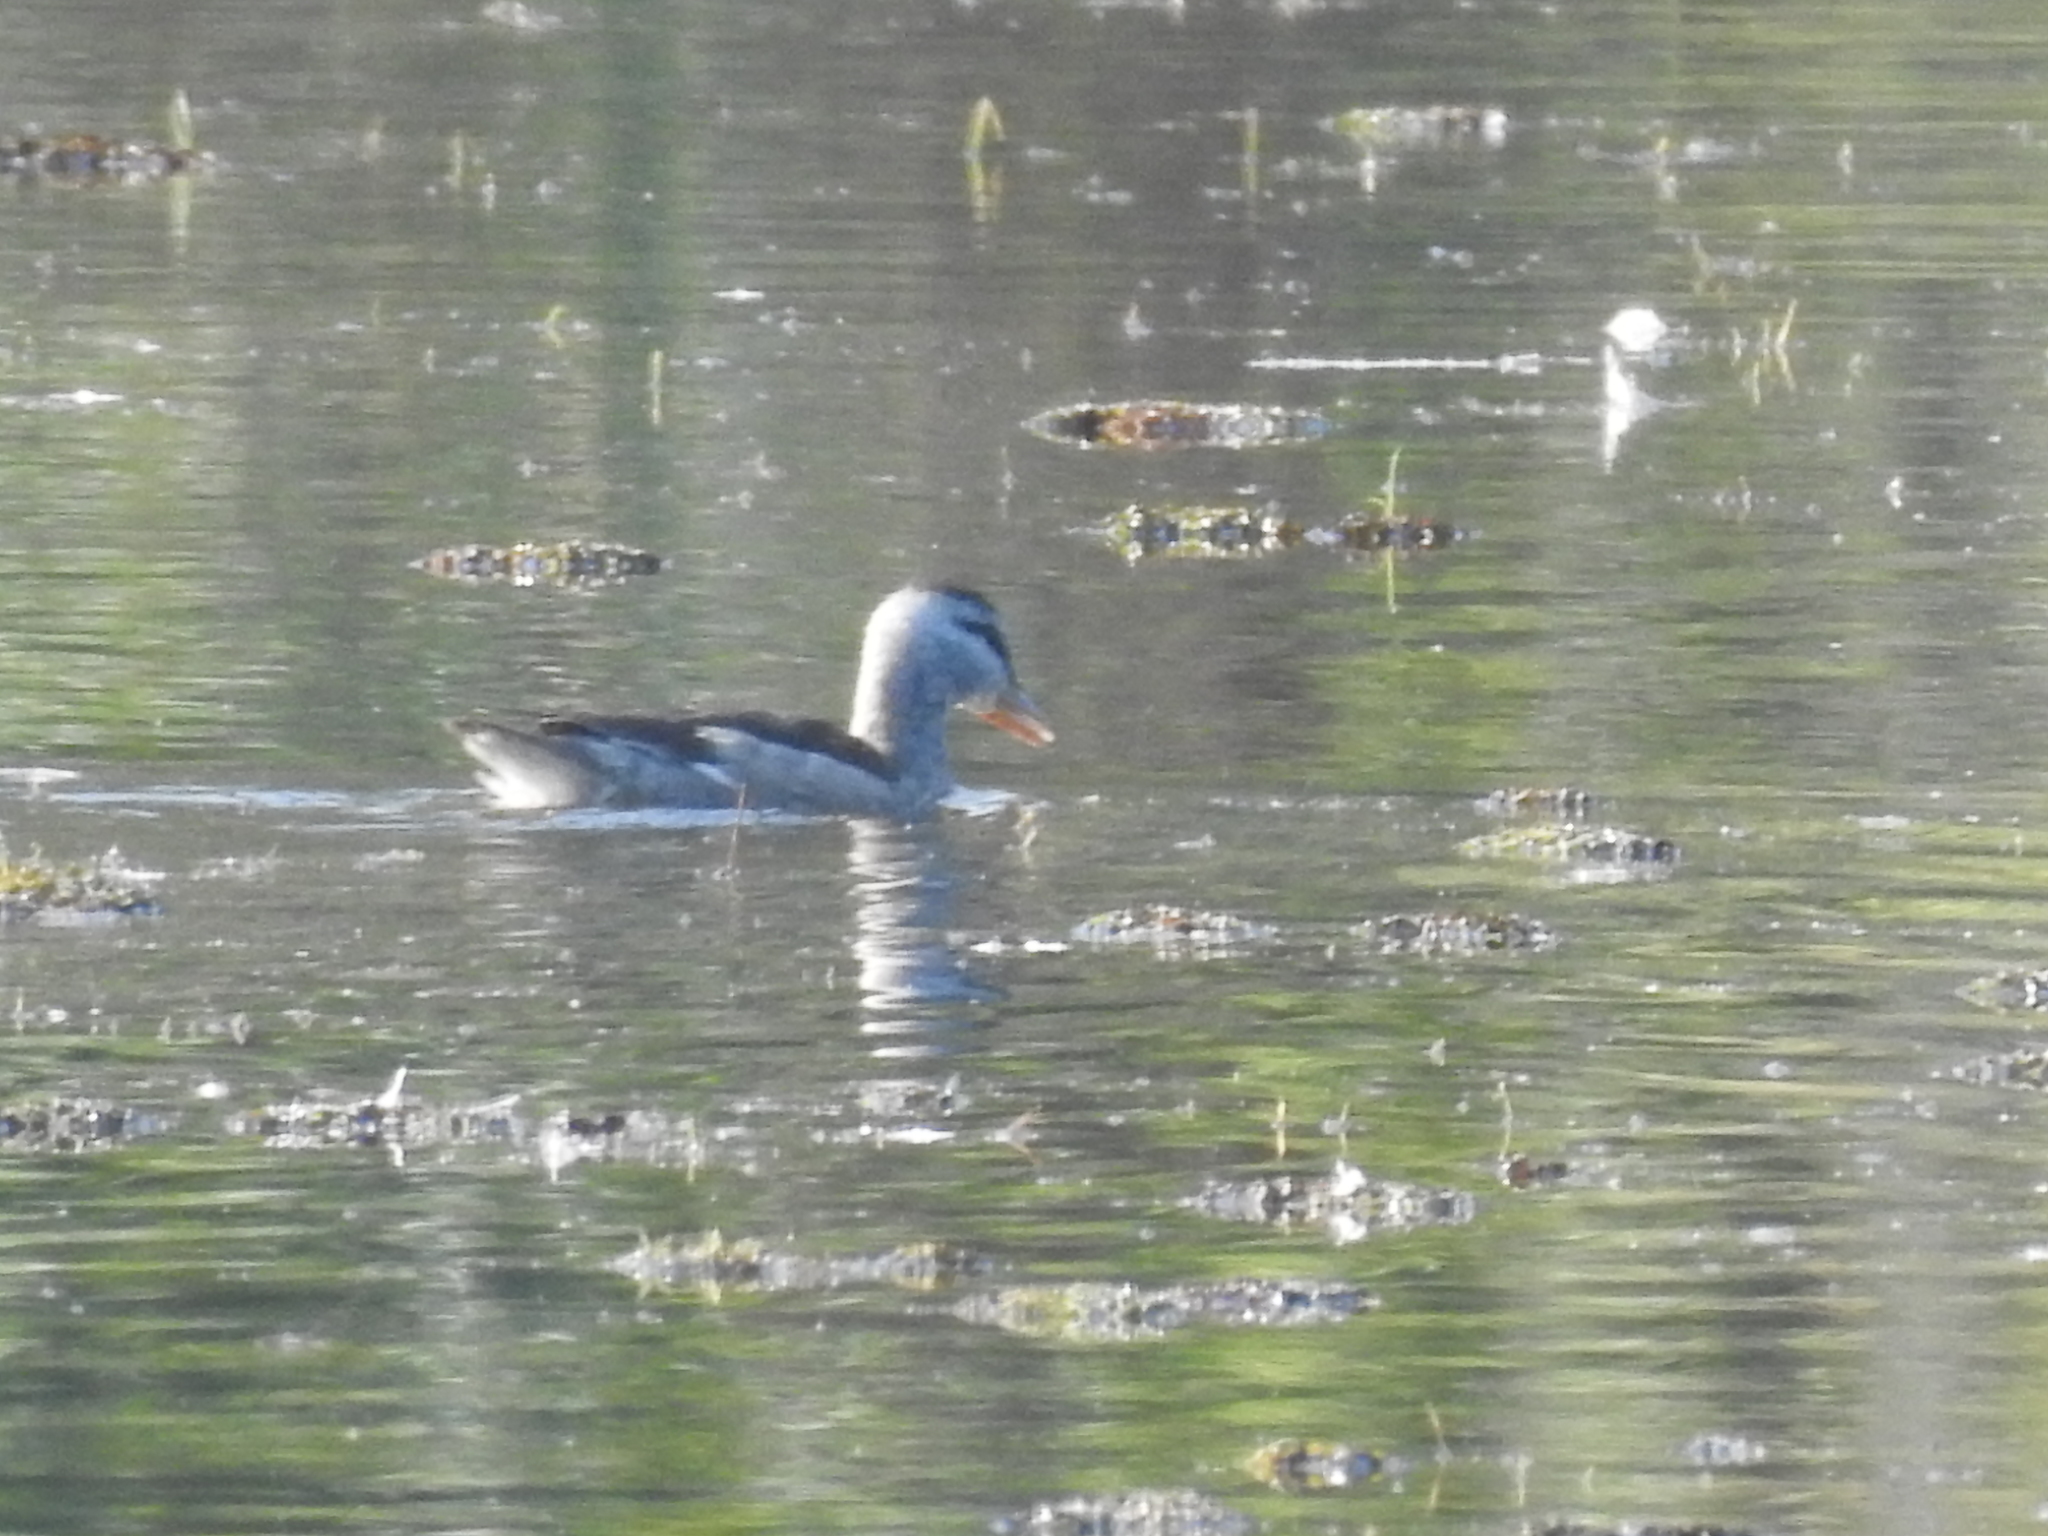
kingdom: Animalia
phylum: Chordata
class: Aves
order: Anseriformes
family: Anatidae
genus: Nettapus
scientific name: Nettapus coromandelianus
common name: Cotton pygmy-goose
